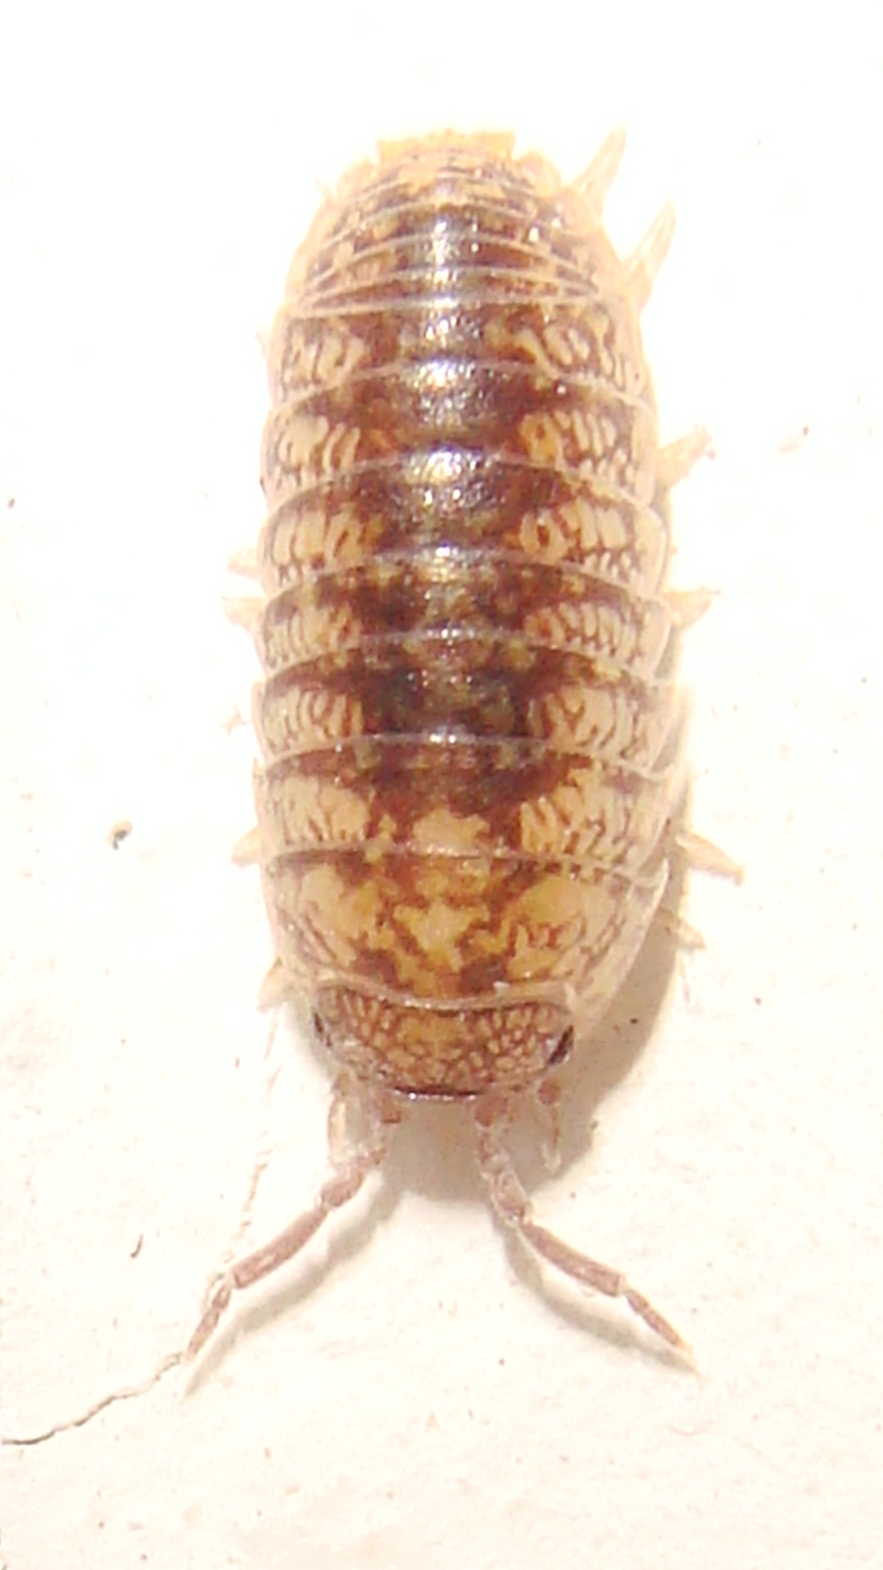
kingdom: Animalia
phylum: Arthropoda
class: Malacostraca
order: Isopoda
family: Armadillidiidae
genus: Armadillidium
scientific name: Armadillidium arcangelii
